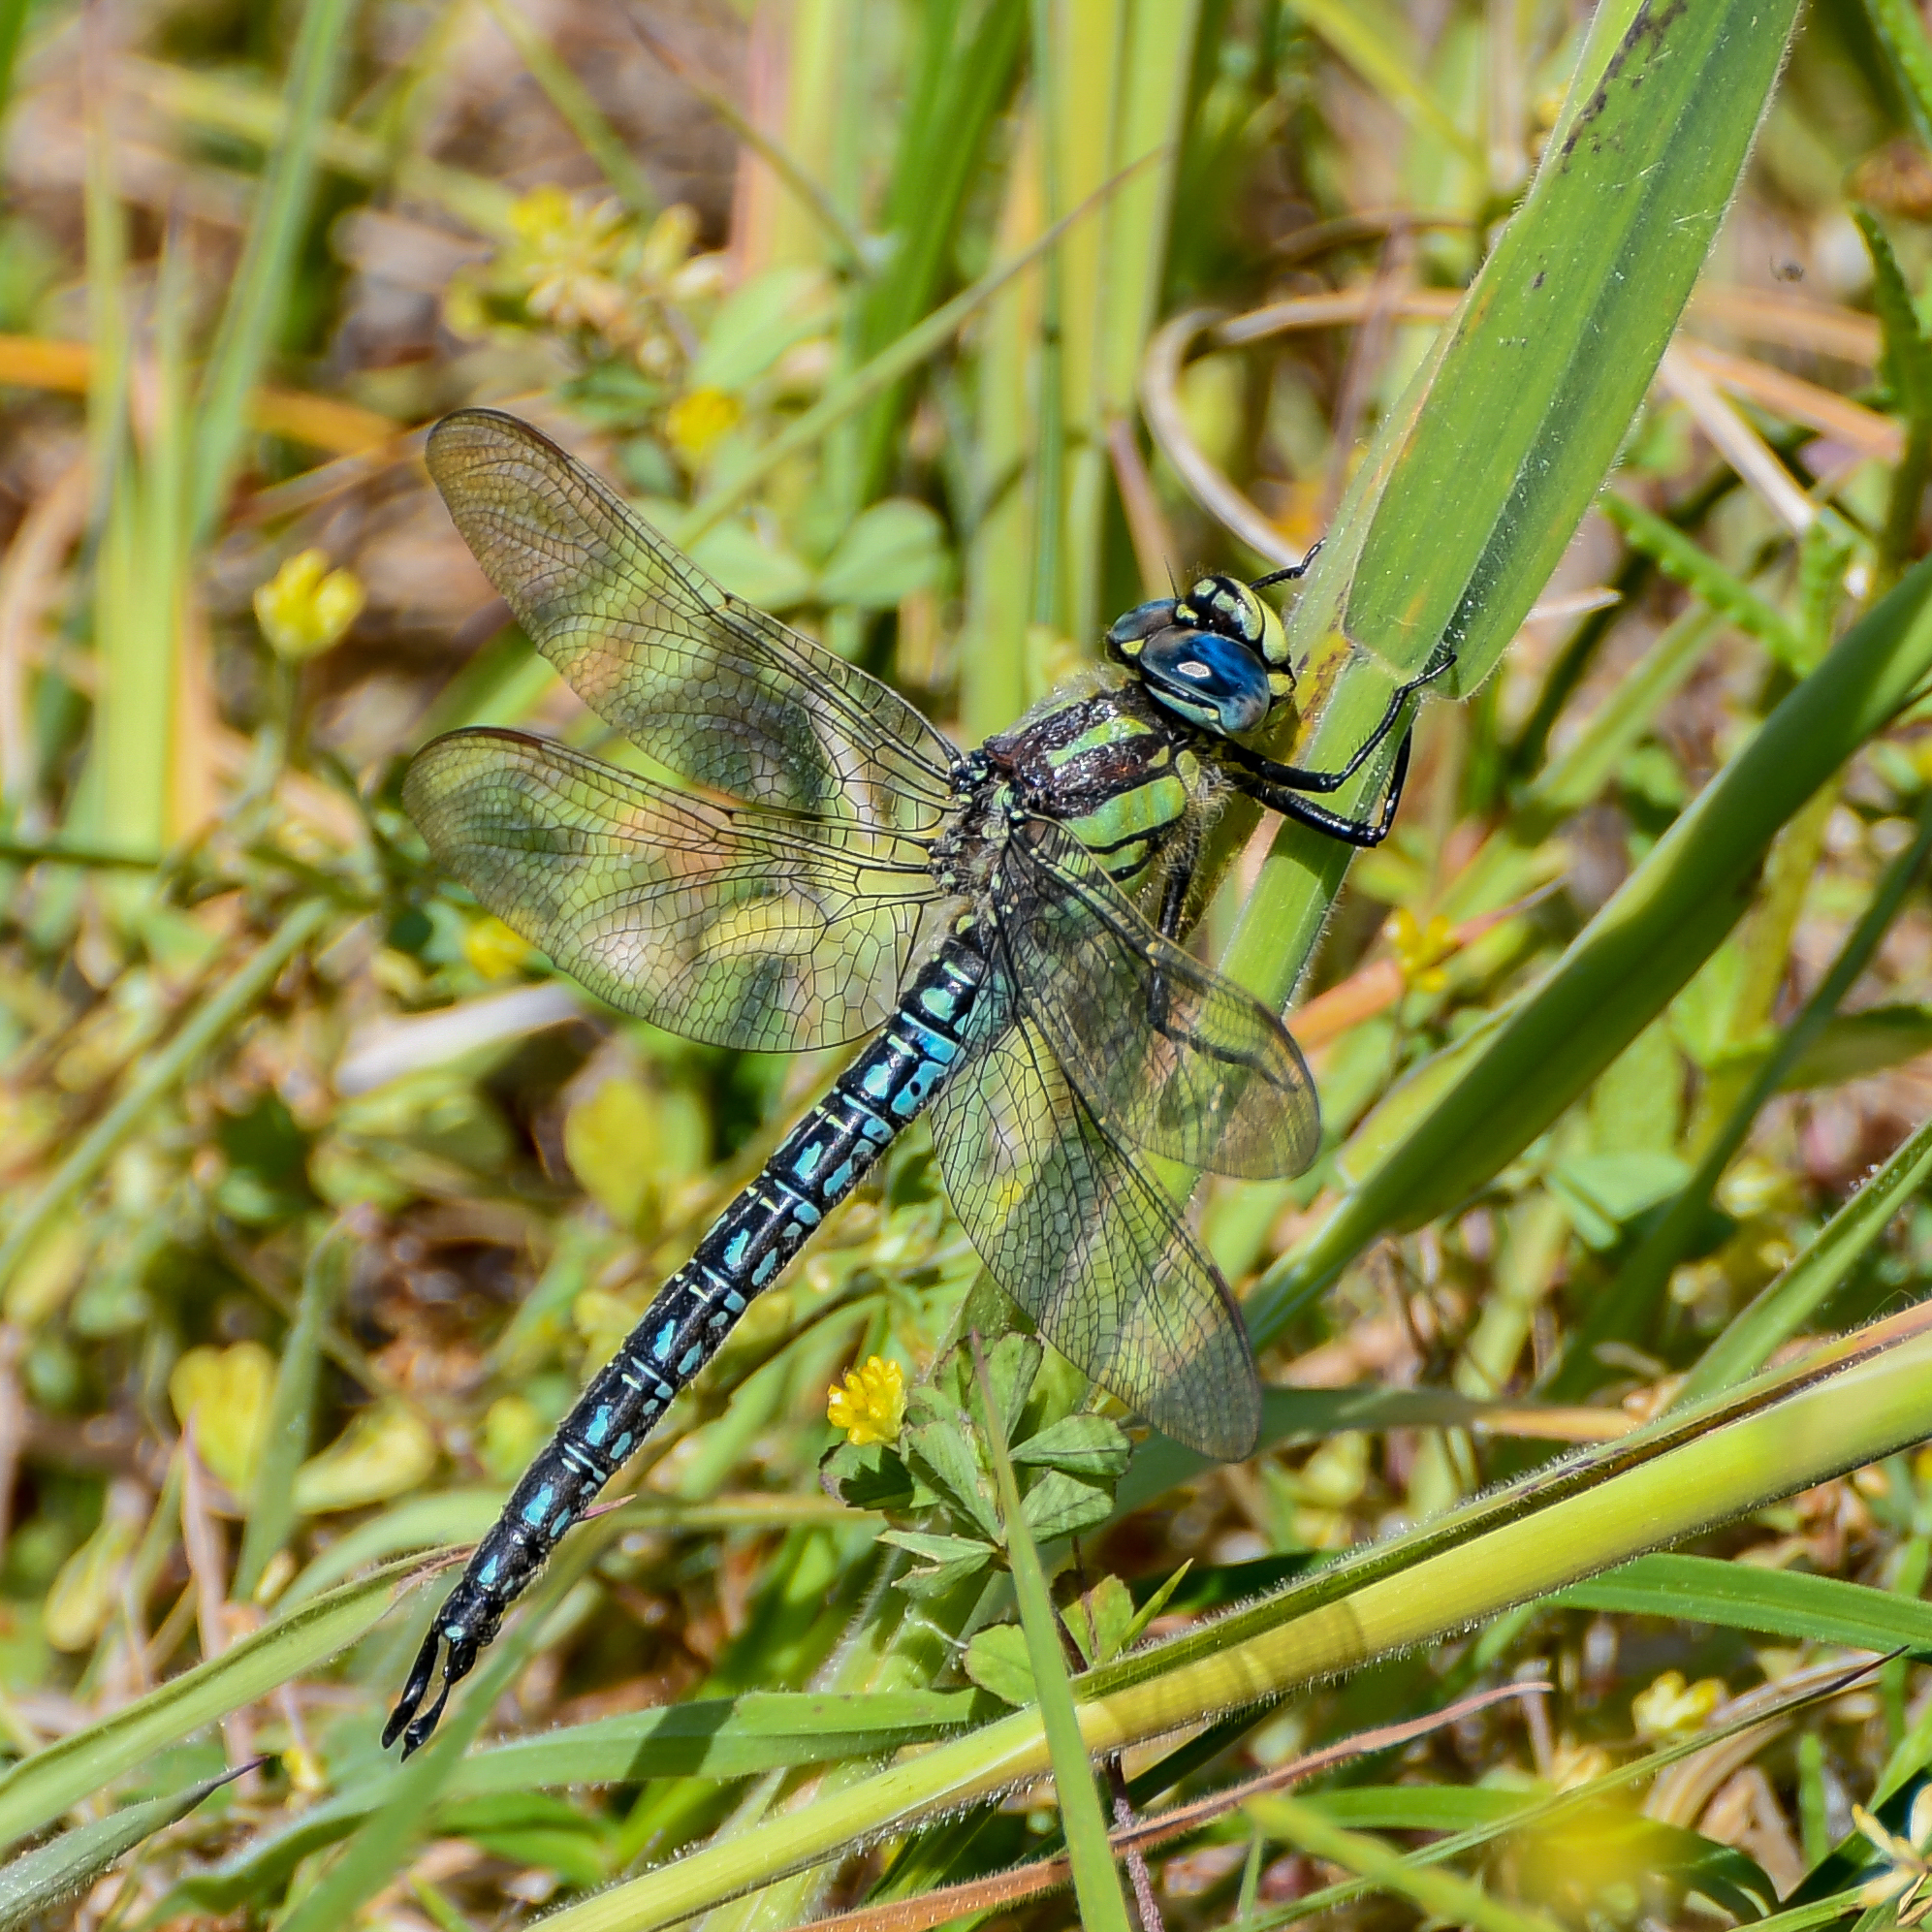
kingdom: Animalia
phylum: Arthropoda
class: Insecta
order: Odonata
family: Aeshnidae
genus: Brachytron
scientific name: Brachytron pratense
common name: Hairy hawker
